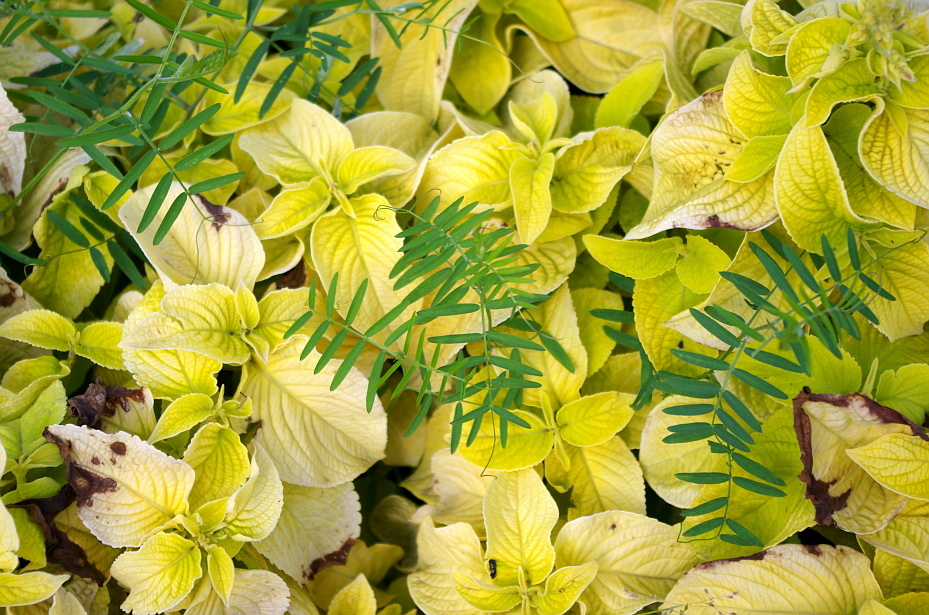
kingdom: Plantae
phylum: Tracheophyta
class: Magnoliopsida
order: Fabales
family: Fabaceae
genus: Vicia
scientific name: Vicia cracca
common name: Bird vetch
